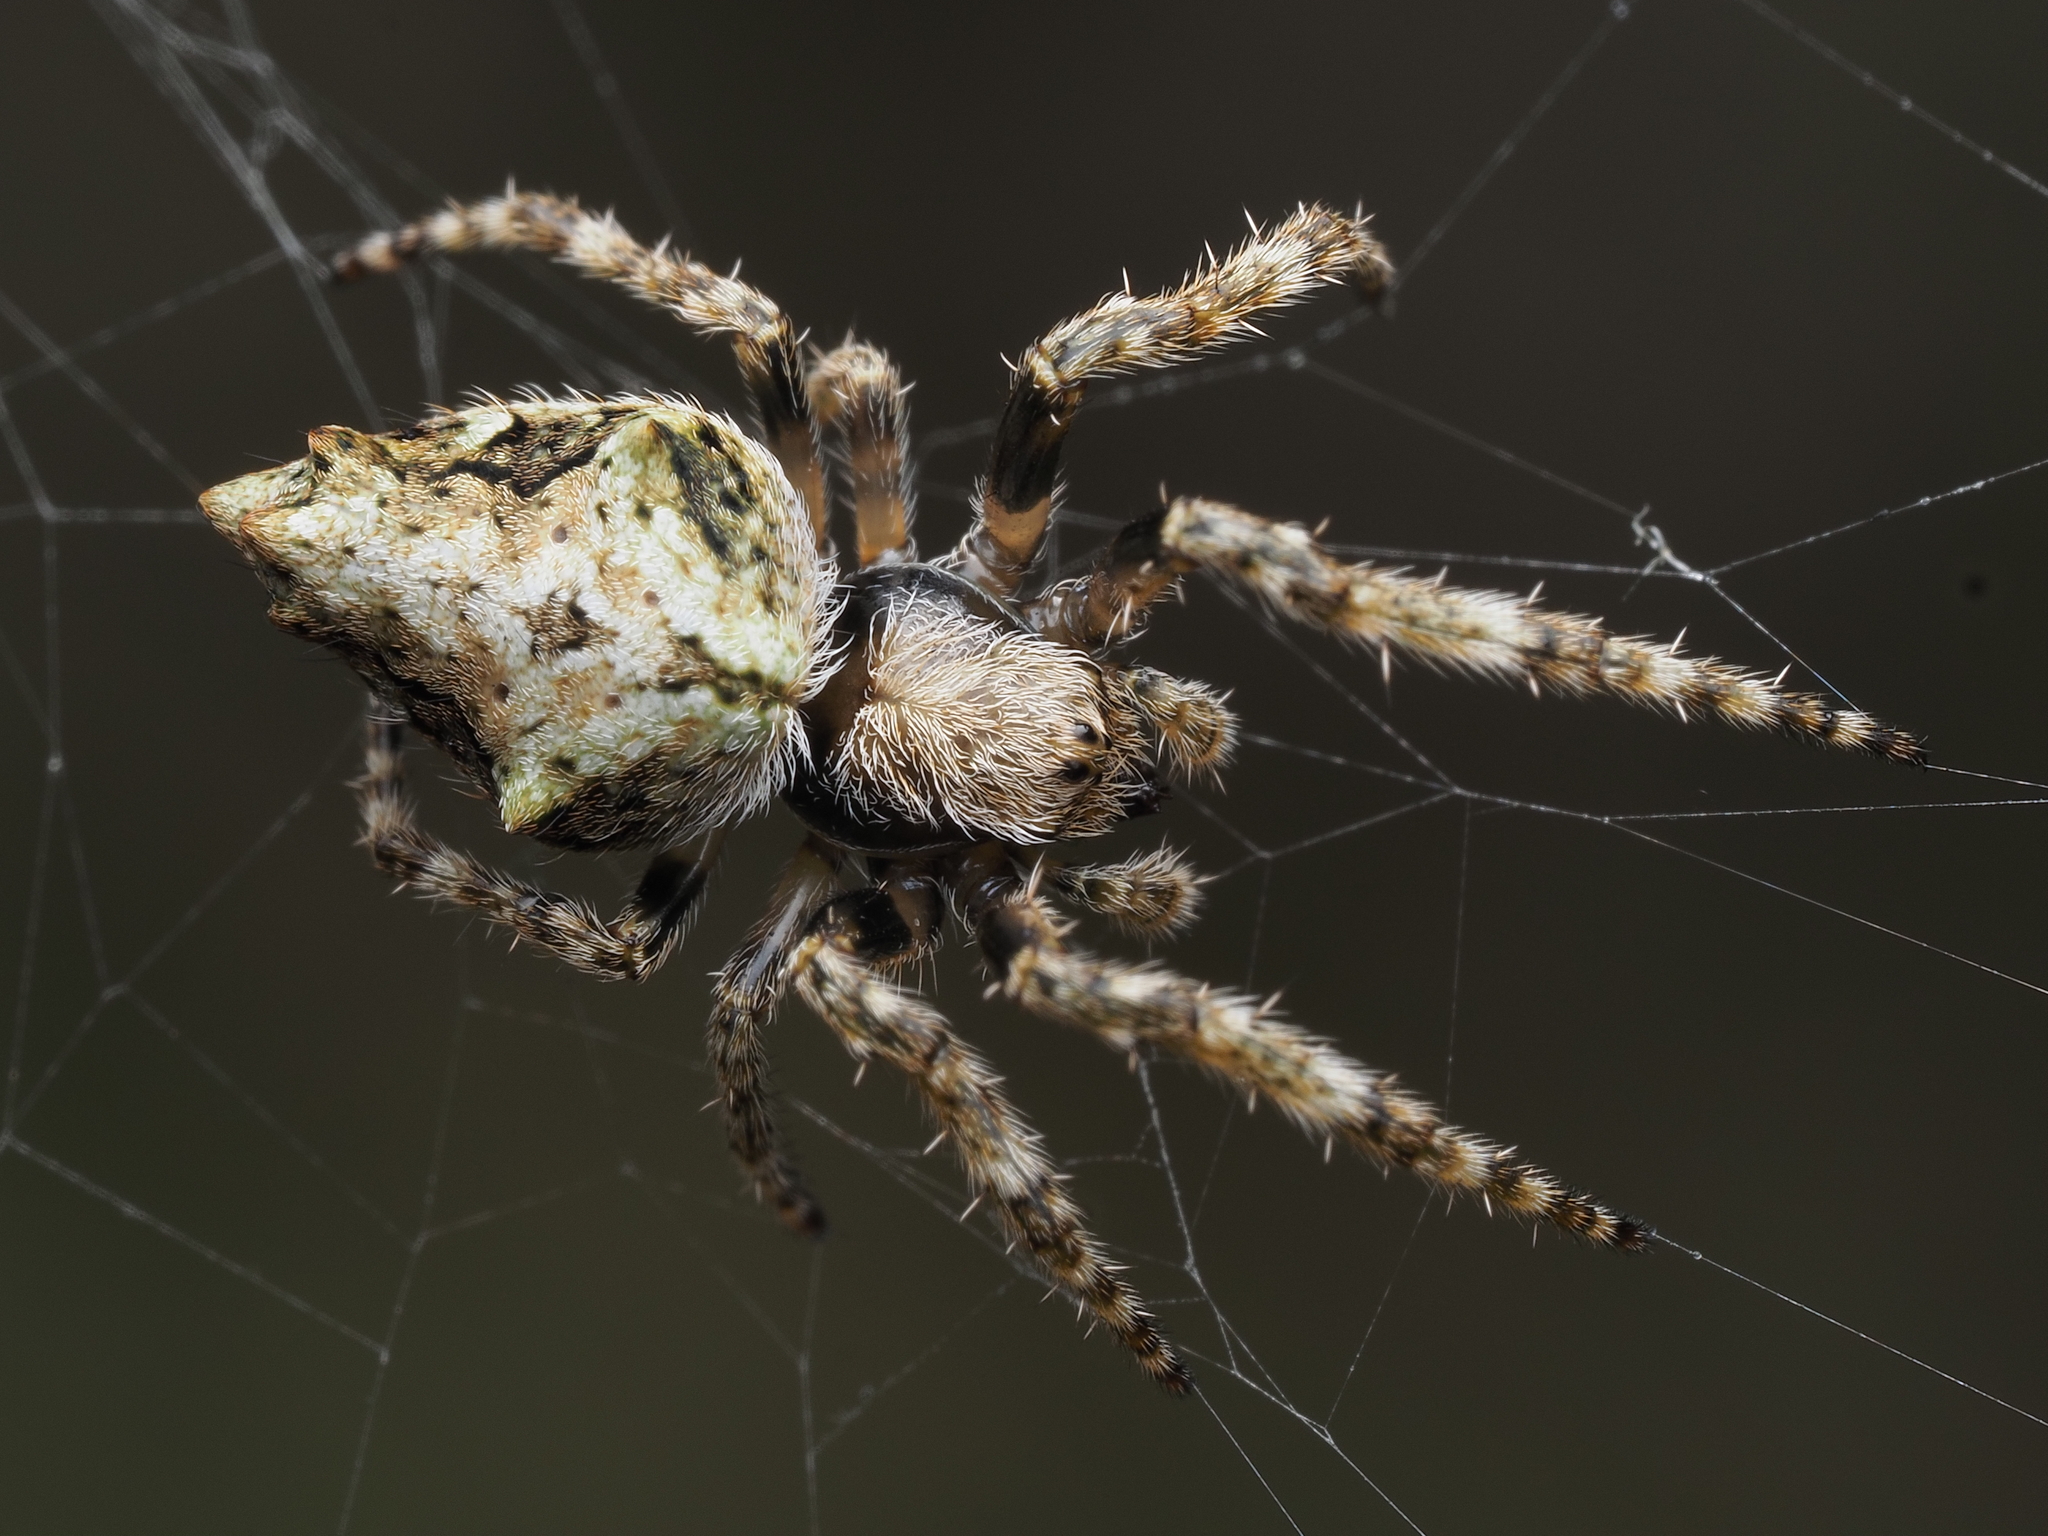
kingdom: Animalia
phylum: Arthropoda
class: Arachnida
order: Araneae
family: Araneidae
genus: Eriophora
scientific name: Eriophora pustulosa
